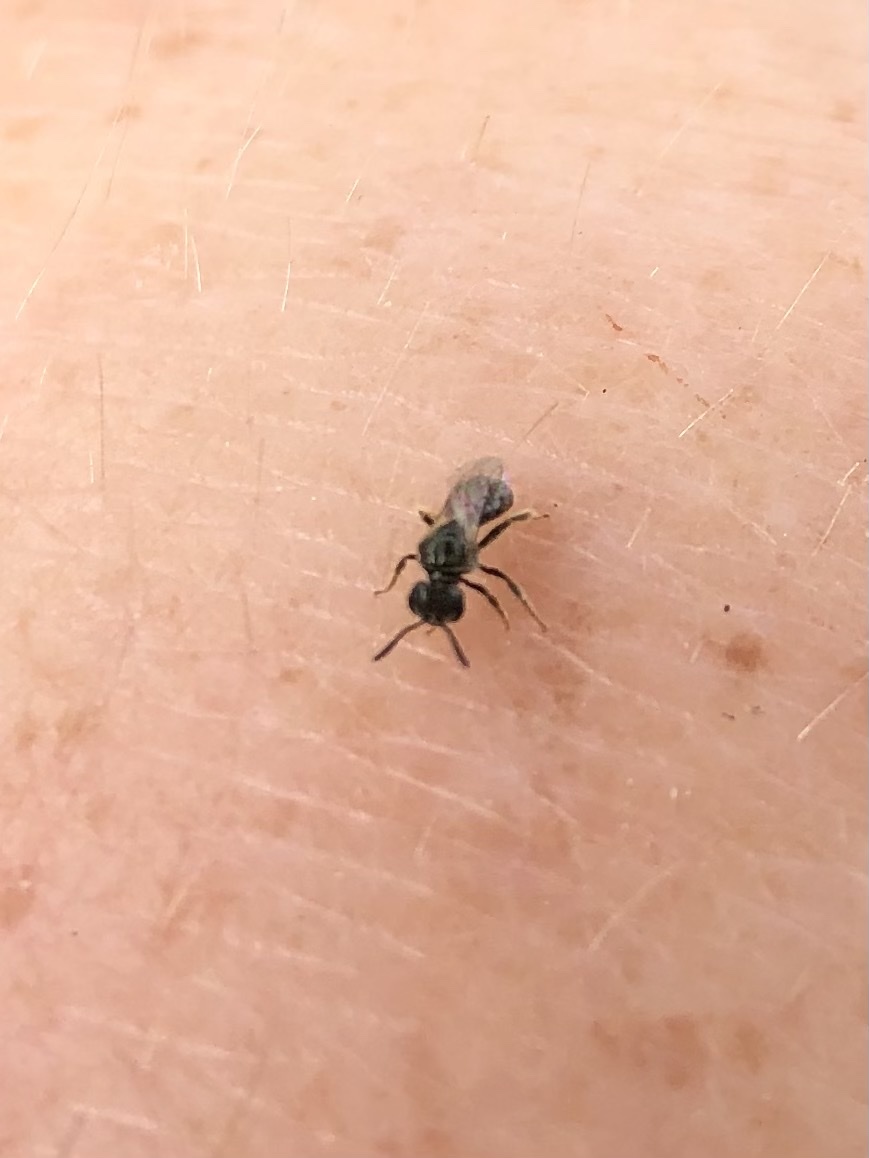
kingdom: Animalia
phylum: Arthropoda
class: Insecta
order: Hymenoptera
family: Halictidae
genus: Dialictus
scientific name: Dialictus
